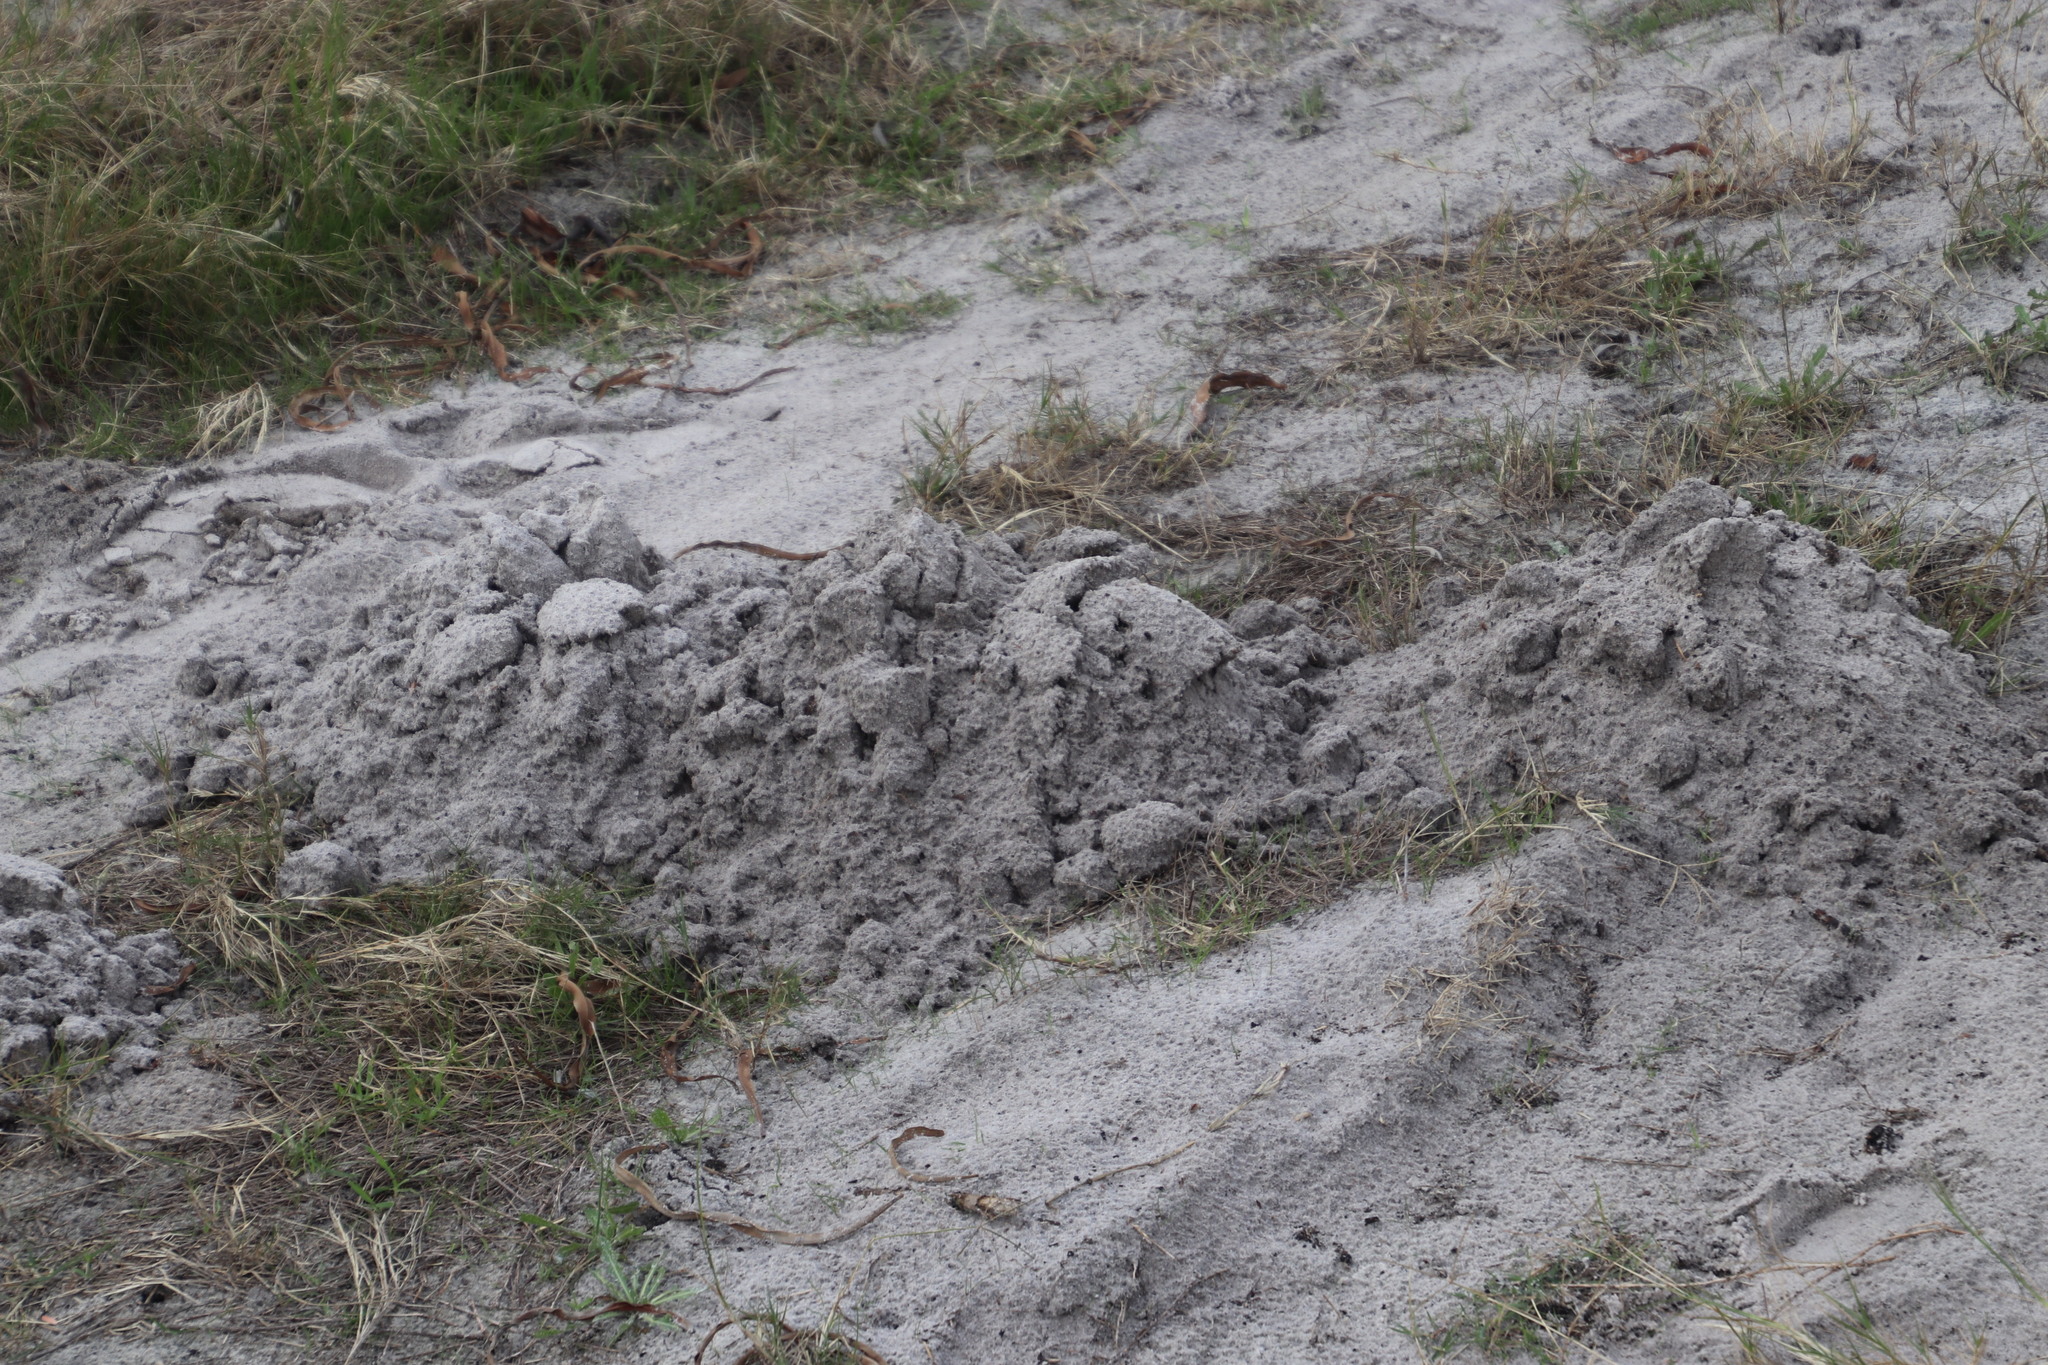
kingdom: Animalia
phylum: Chordata
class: Mammalia
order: Rodentia
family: Bathyergidae
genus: Bathyergus
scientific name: Bathyergus suillus
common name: Cape dune mole rat
